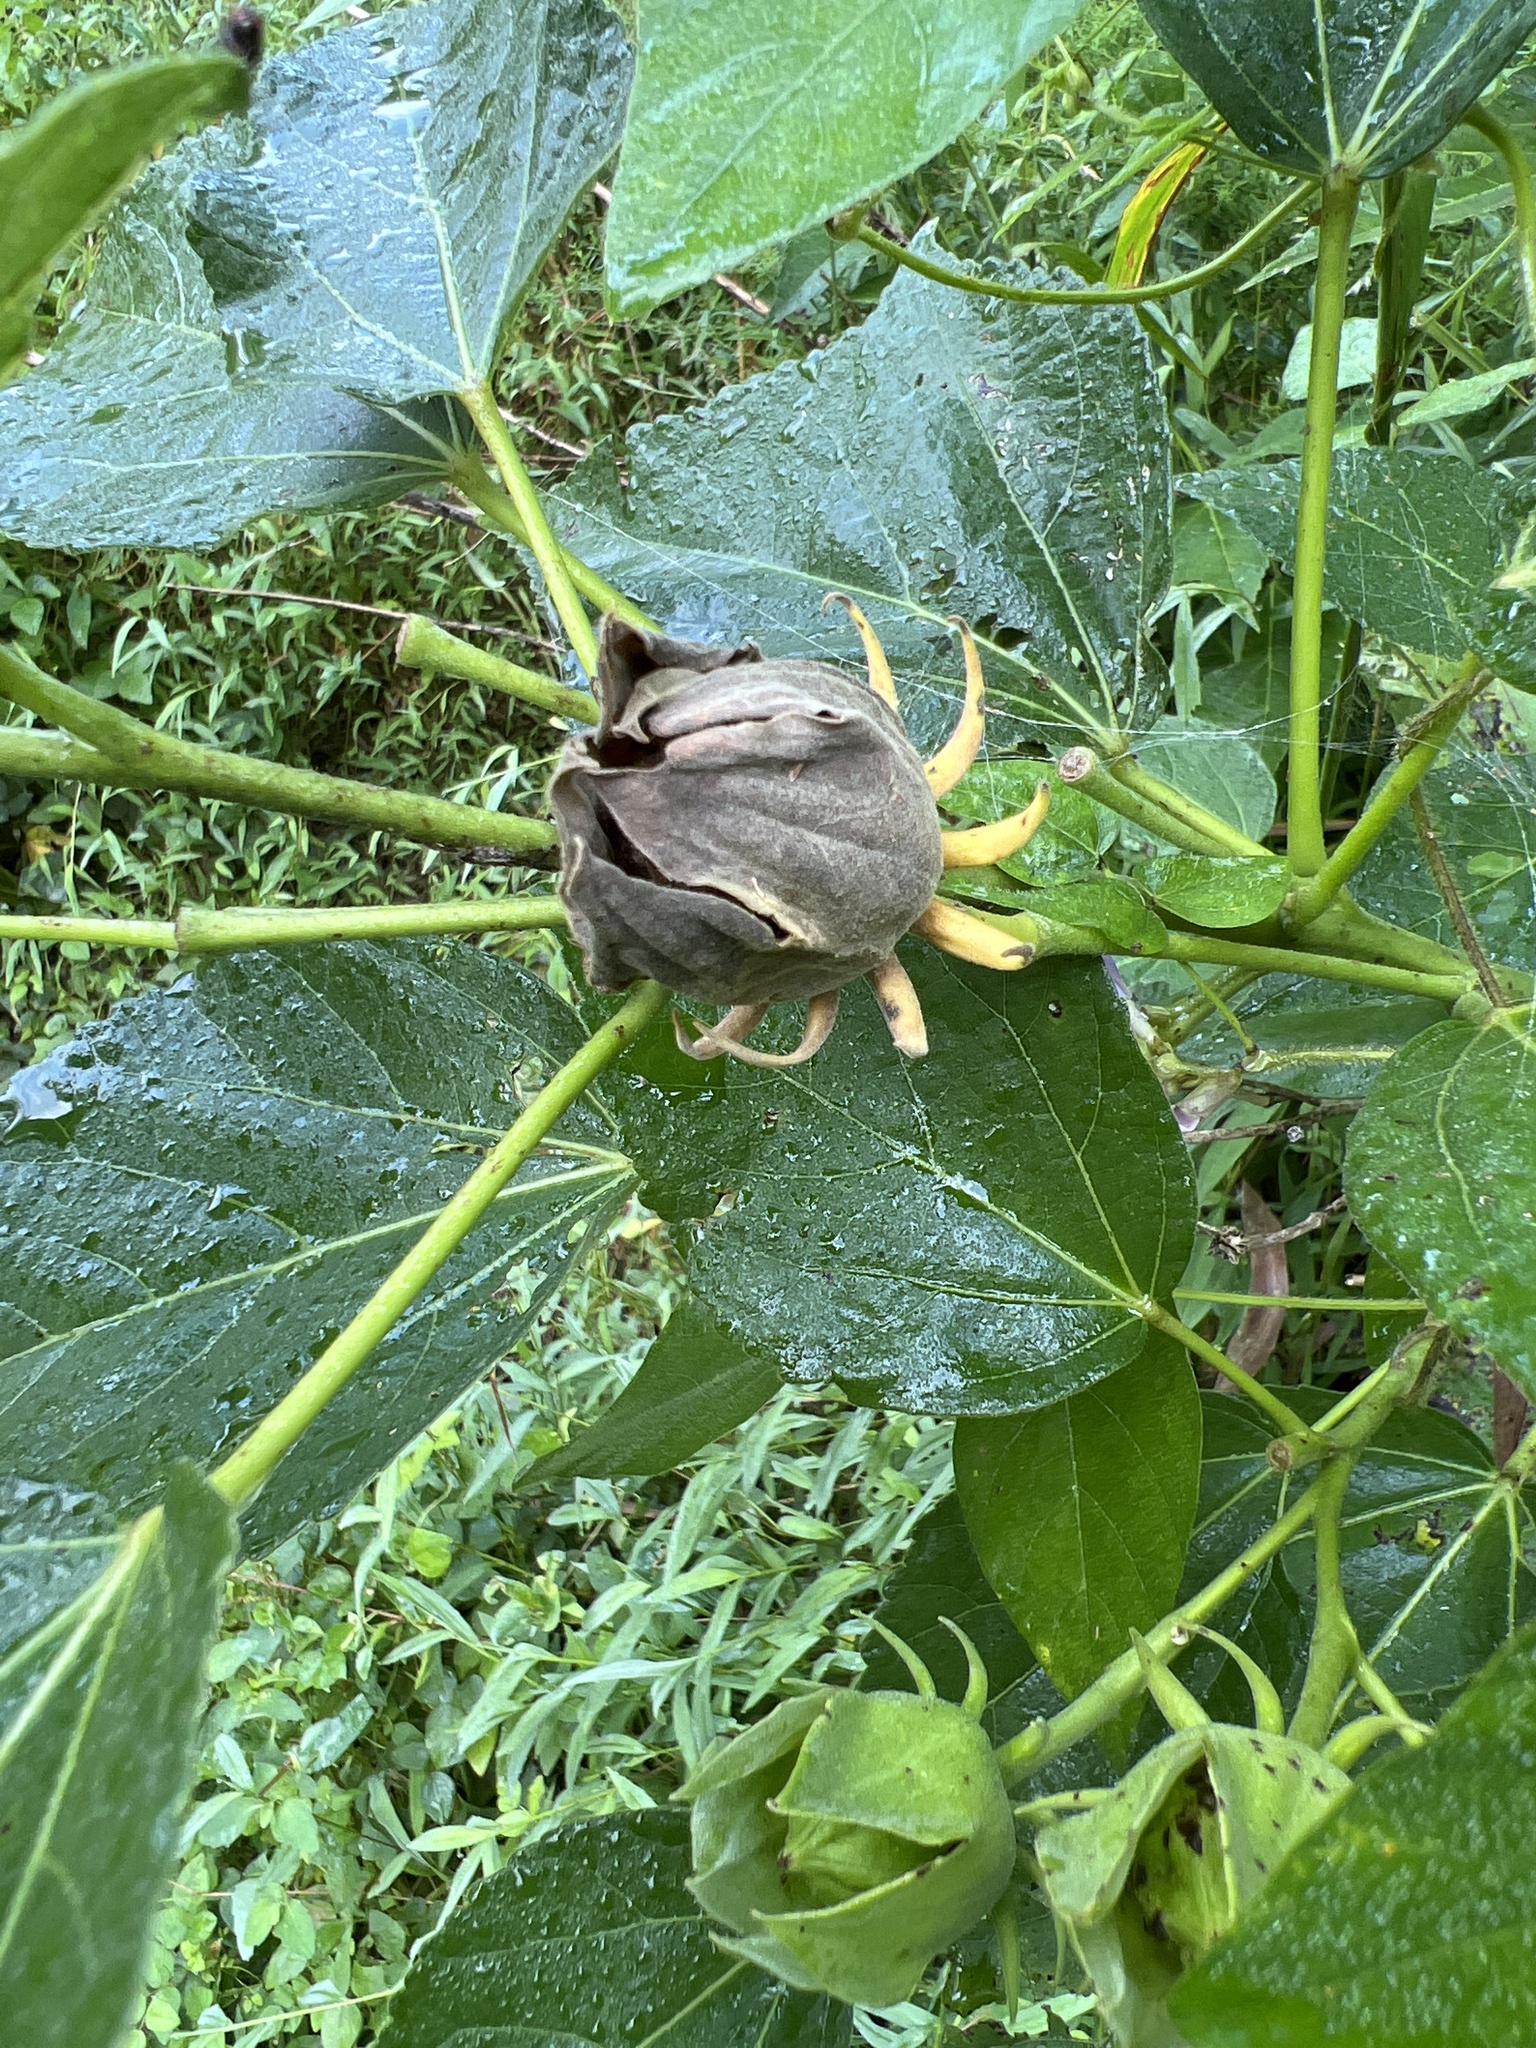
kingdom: Plantae
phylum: Tracheophyta
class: Magnoliopsida
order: Malvales
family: Malvaceae
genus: Hibiscus
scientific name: Hibiscus moscheutos
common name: Common rose-mallow
